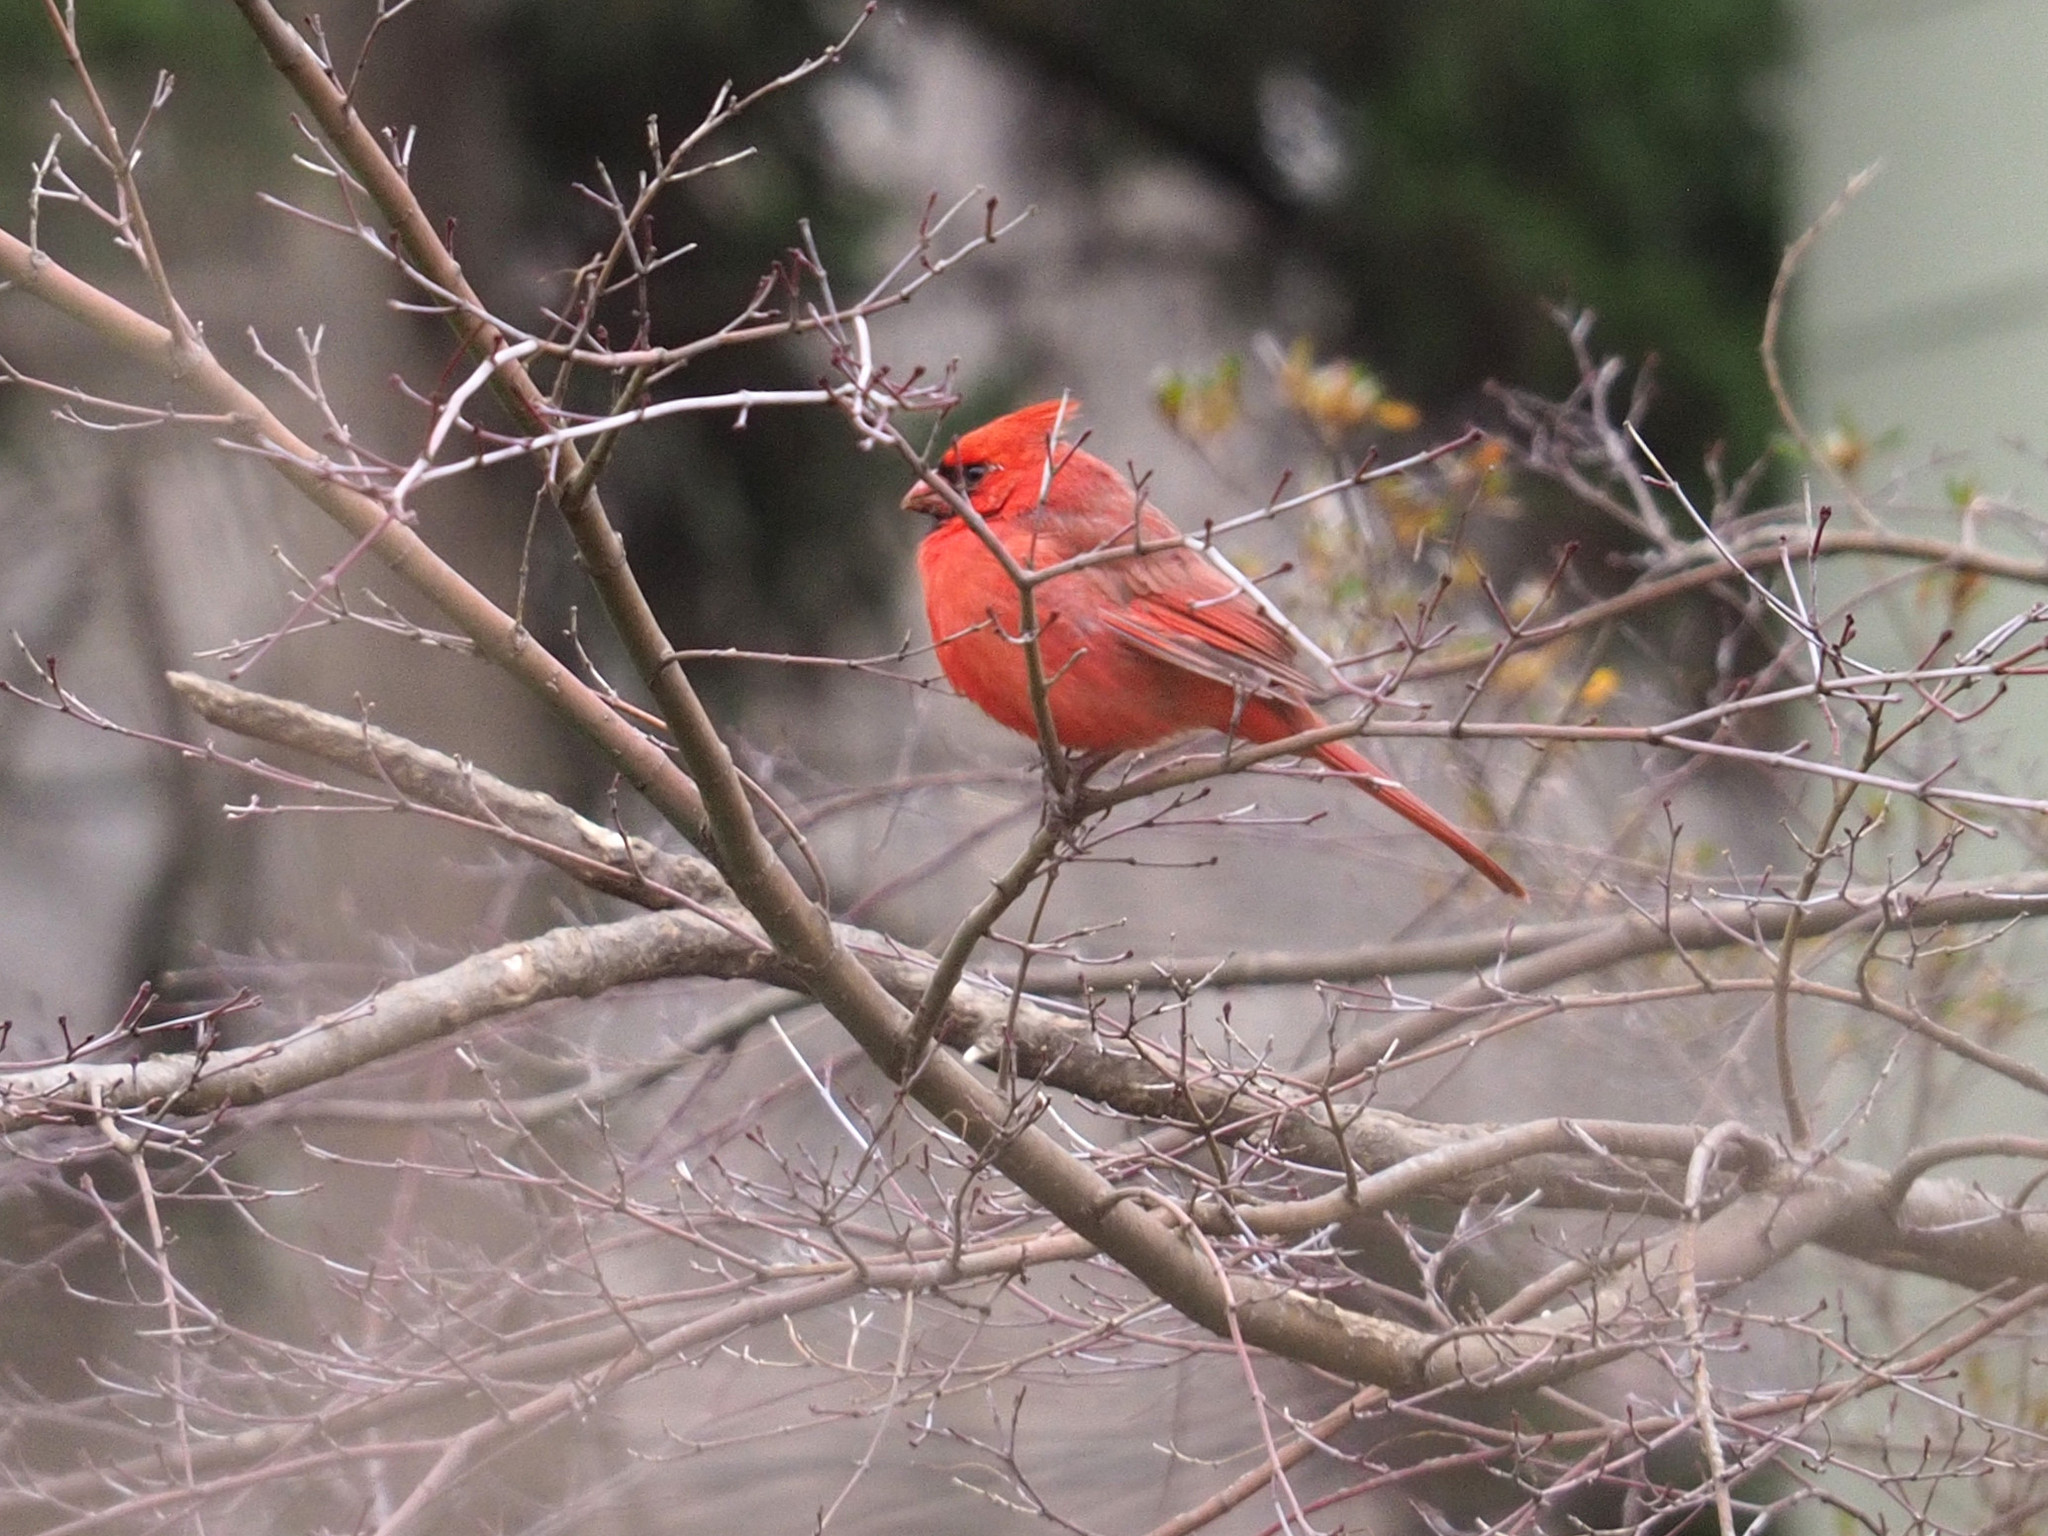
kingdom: Animalia
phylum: Chordata
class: Aves
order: Passeriformes
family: Cardinalidae
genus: Cardinalis
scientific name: Cardinalis cardinalis
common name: Northern cardinal
